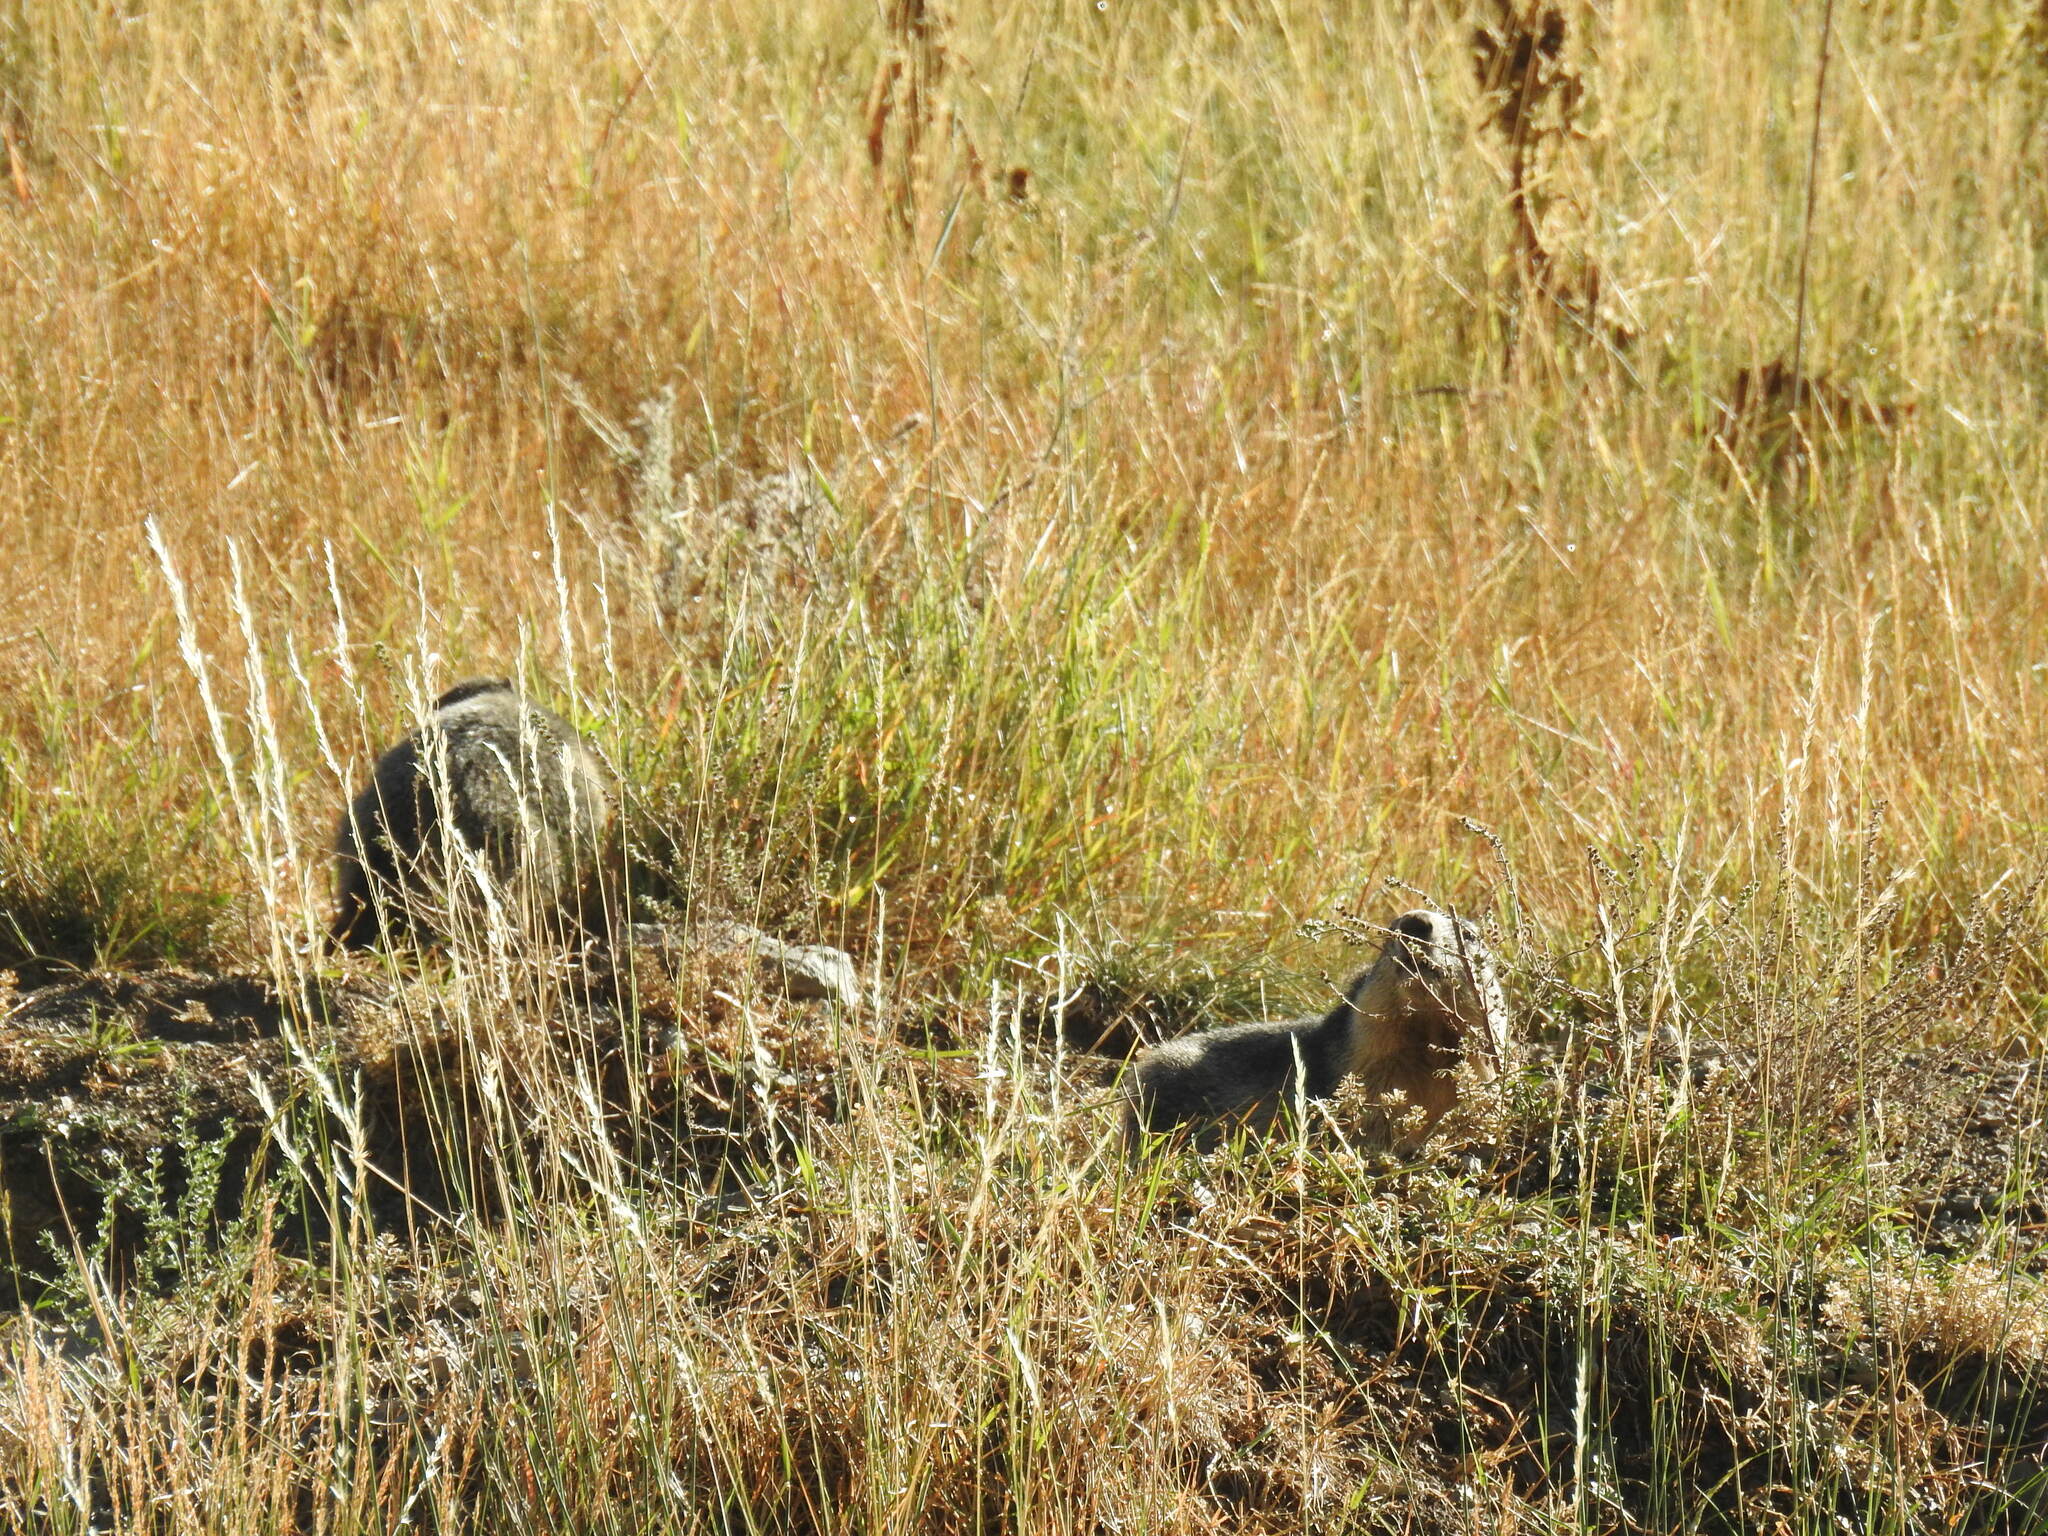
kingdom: Animalia
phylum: Chordata
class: Mammalia
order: Rodentia
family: Sciuridae
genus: Marmota
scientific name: Marmota marmota
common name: Alpine marmot
